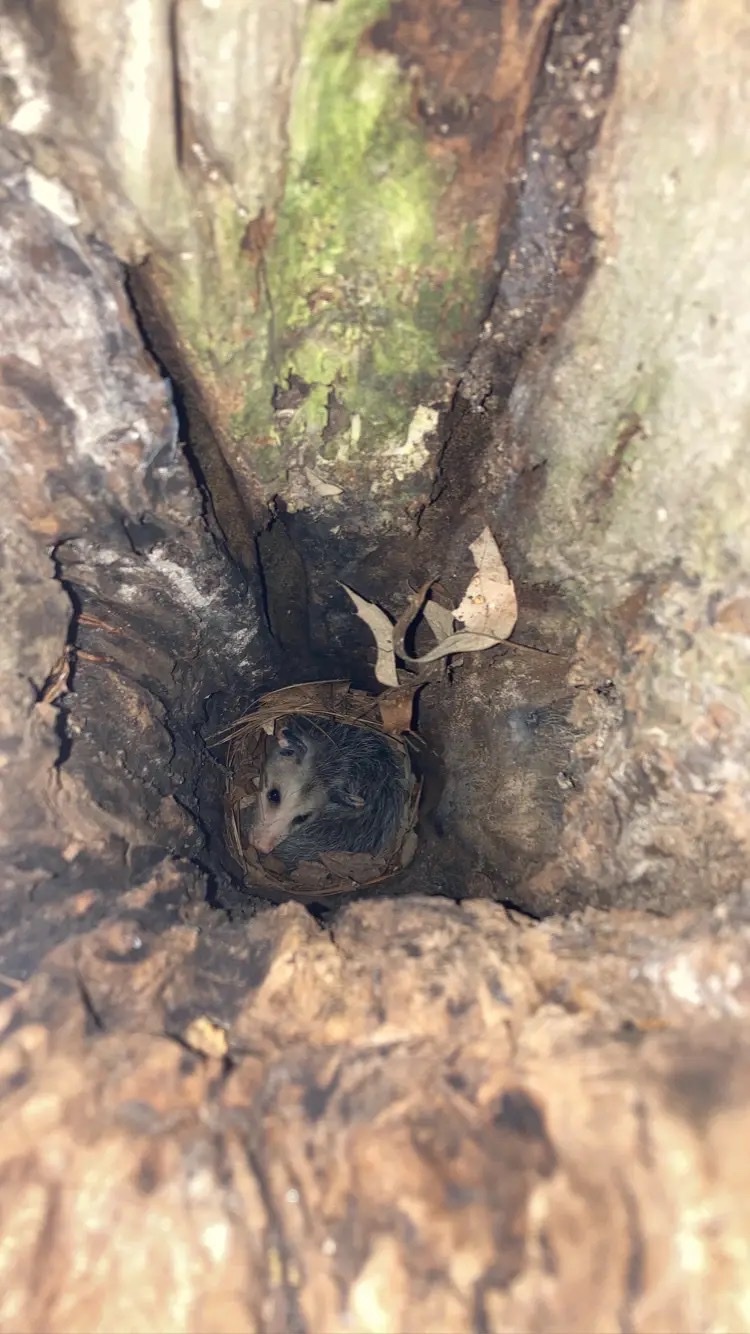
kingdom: Animalia
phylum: Chordata
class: Mammalia
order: Didelphimorphia
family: Didelphidae
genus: Didelphis
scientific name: Didelphis virginiana
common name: Virginia opossum
